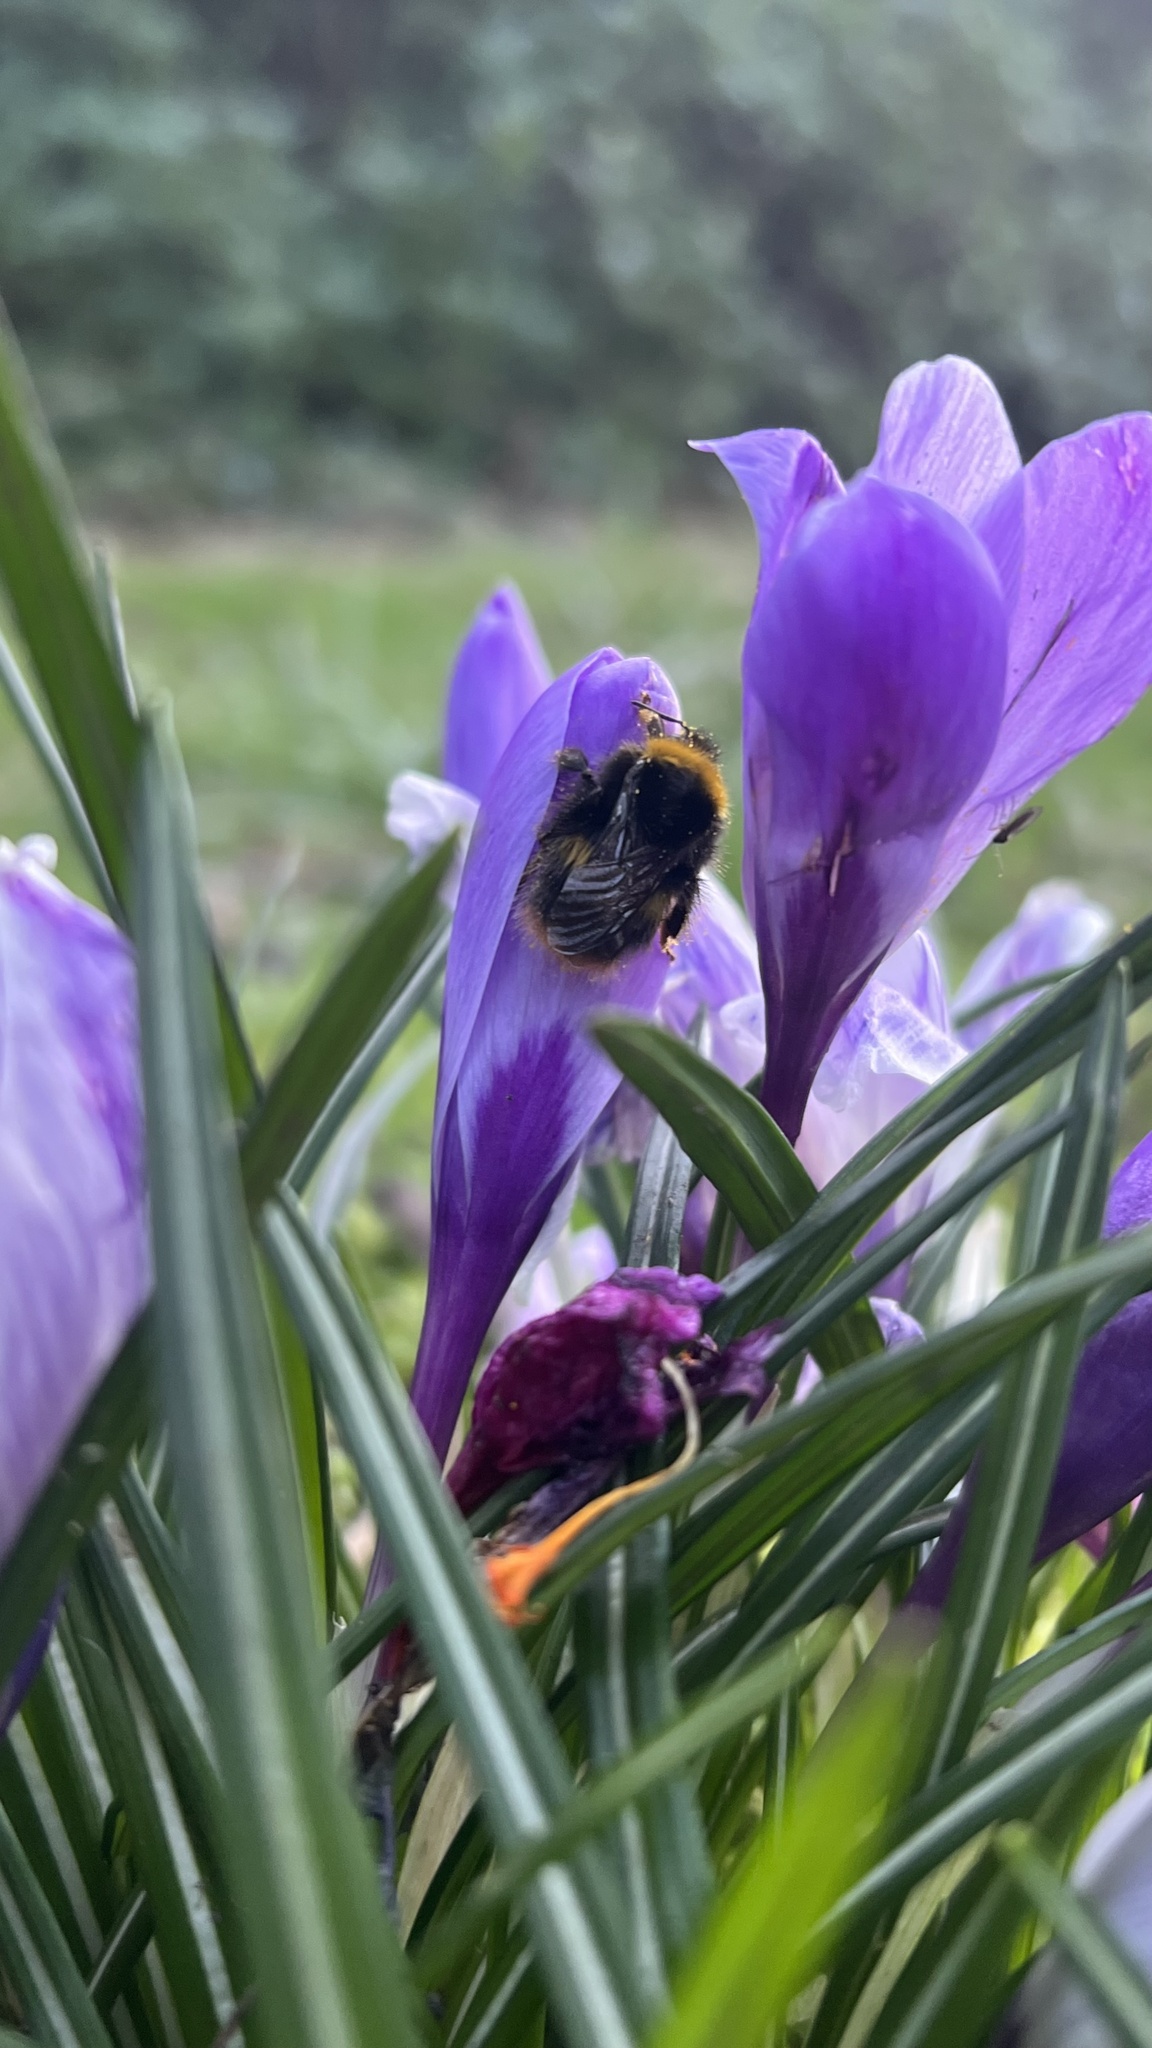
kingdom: Animalia
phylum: Arthropoda
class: Insecta
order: Hymenoptera
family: Apidae
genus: Bombus
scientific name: Bombus pratorum
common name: Early humble-bee
